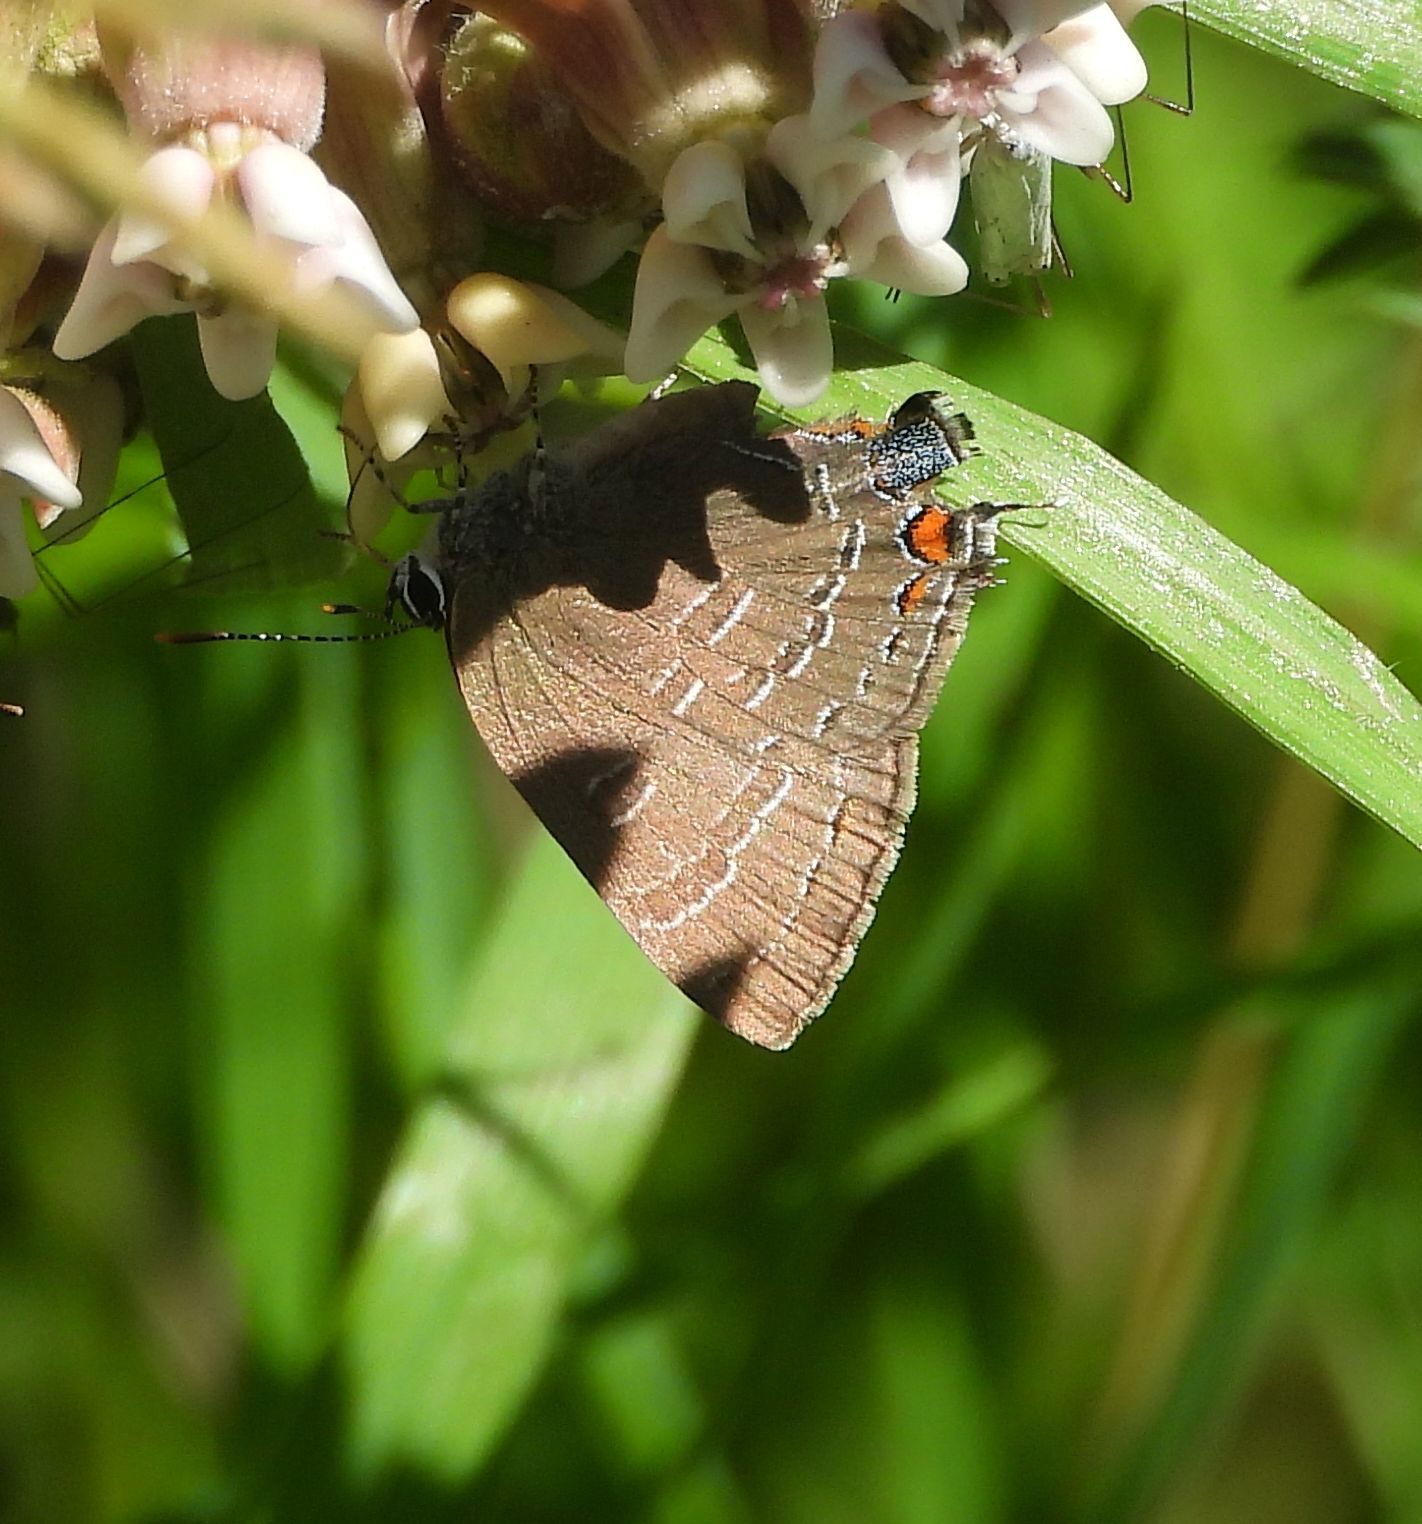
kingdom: Animalia
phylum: Arthropoda
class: Insecta
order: Lepidoptera
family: Lycaenidae
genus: Satyrium
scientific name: Satyrium calanus
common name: Banded hairstreak
